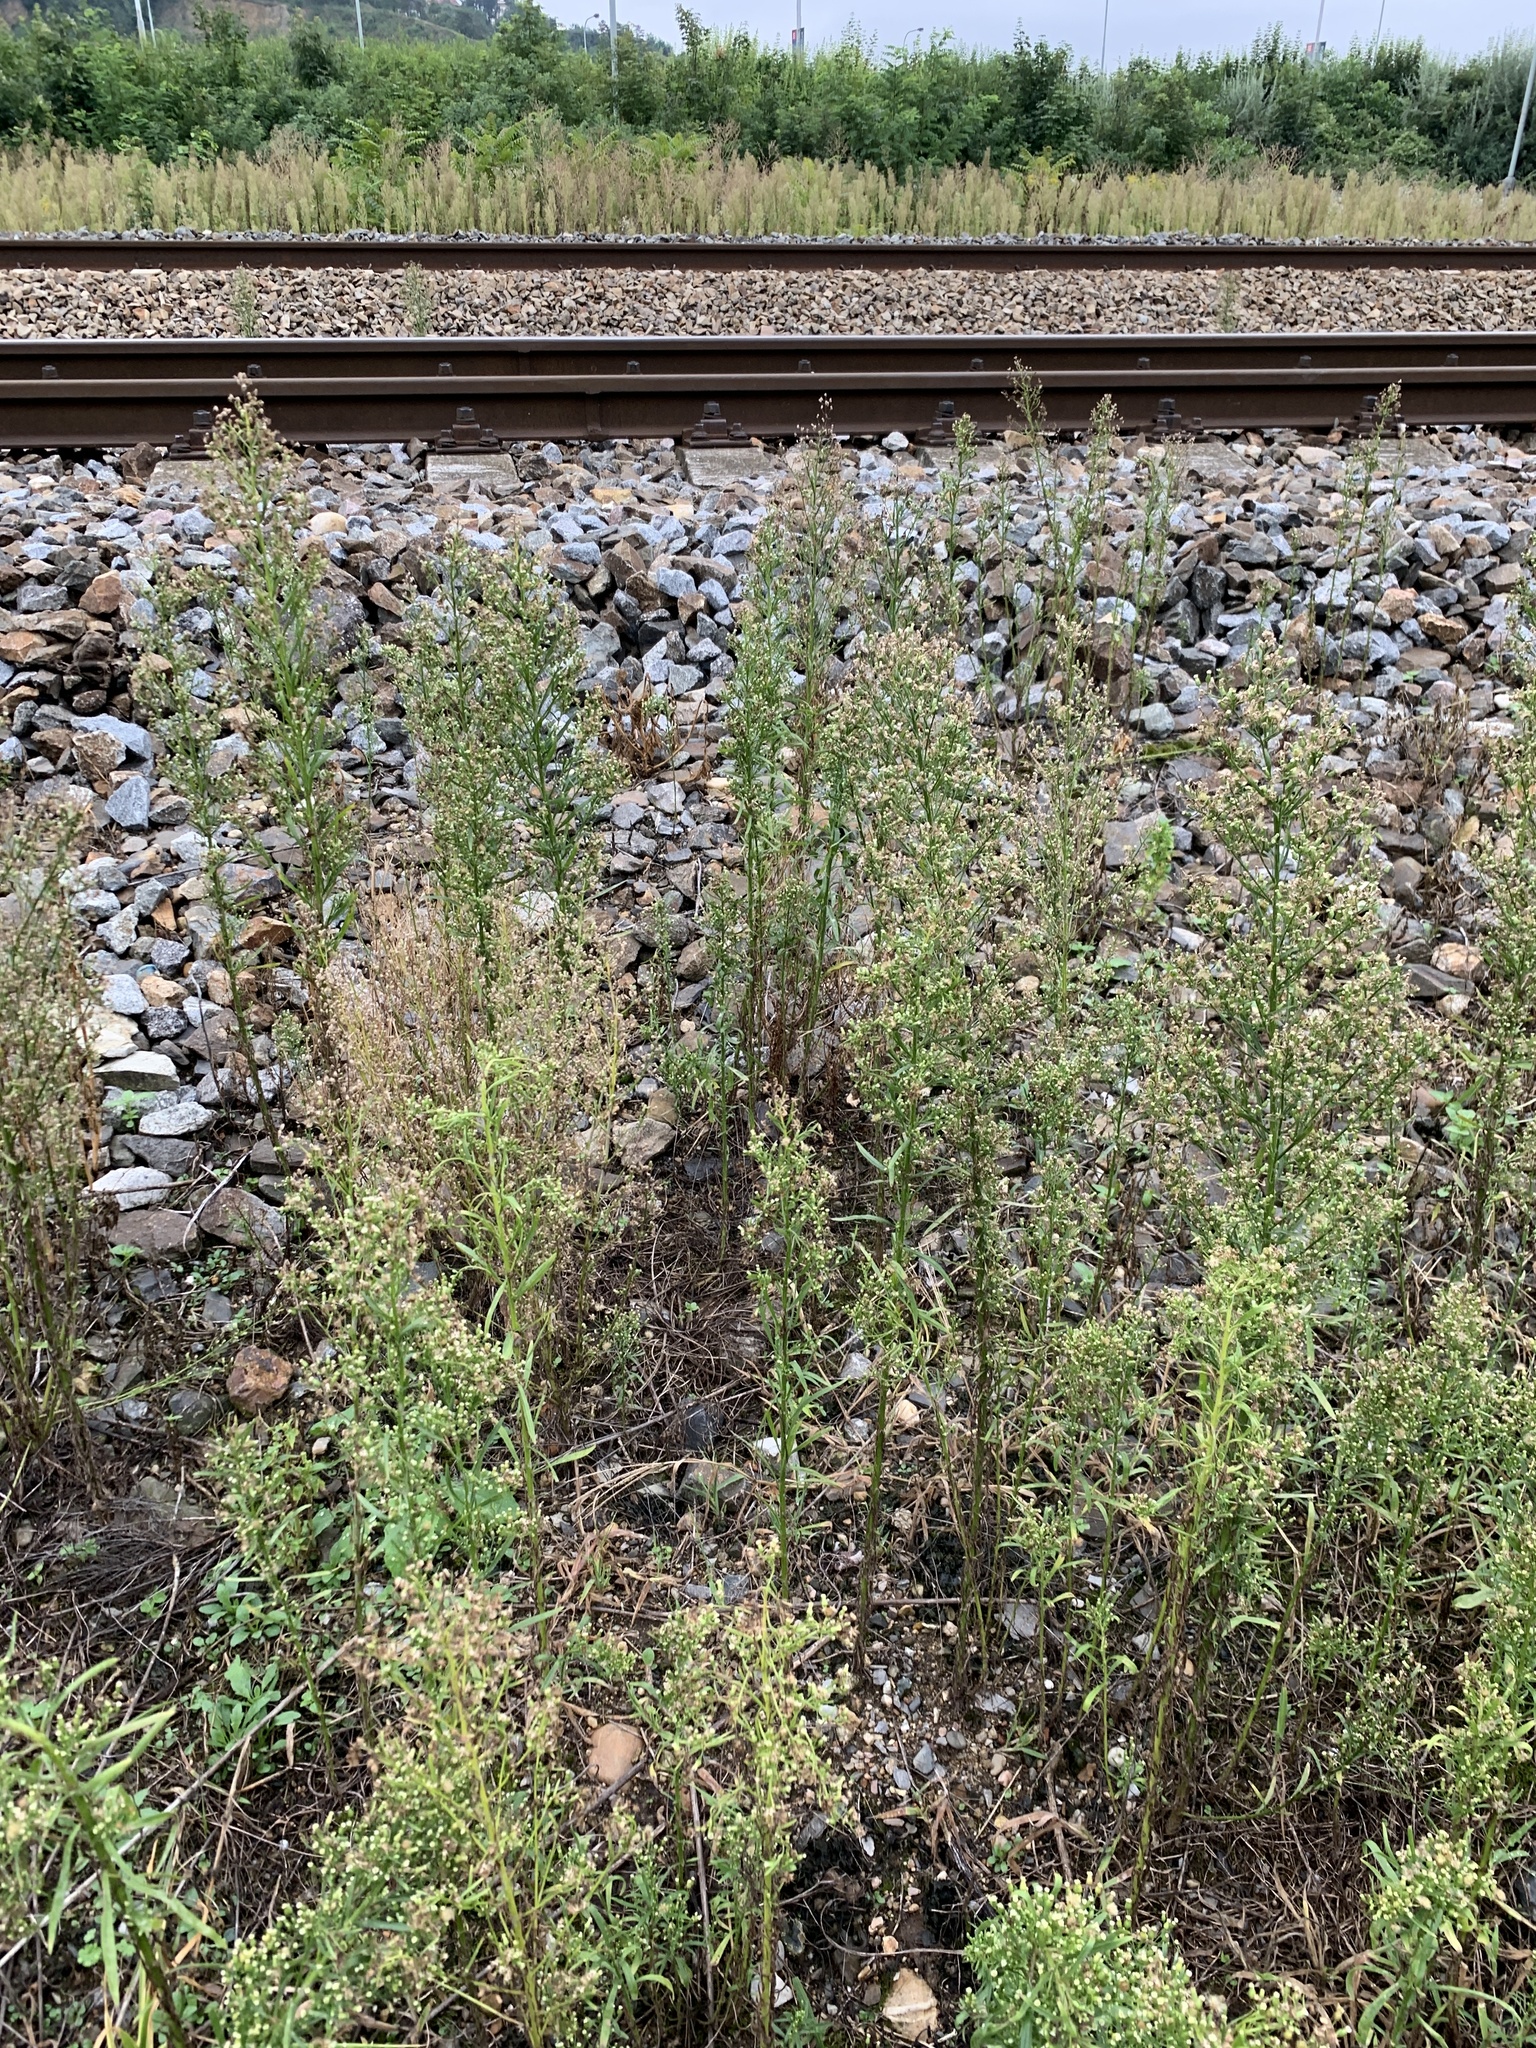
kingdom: Plantae
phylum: Tracheophyta
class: Magnoliopsida
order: Asterales
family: Asteraceae
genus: Erigeron
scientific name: Erigeron canadensis
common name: Canadian fleabane
